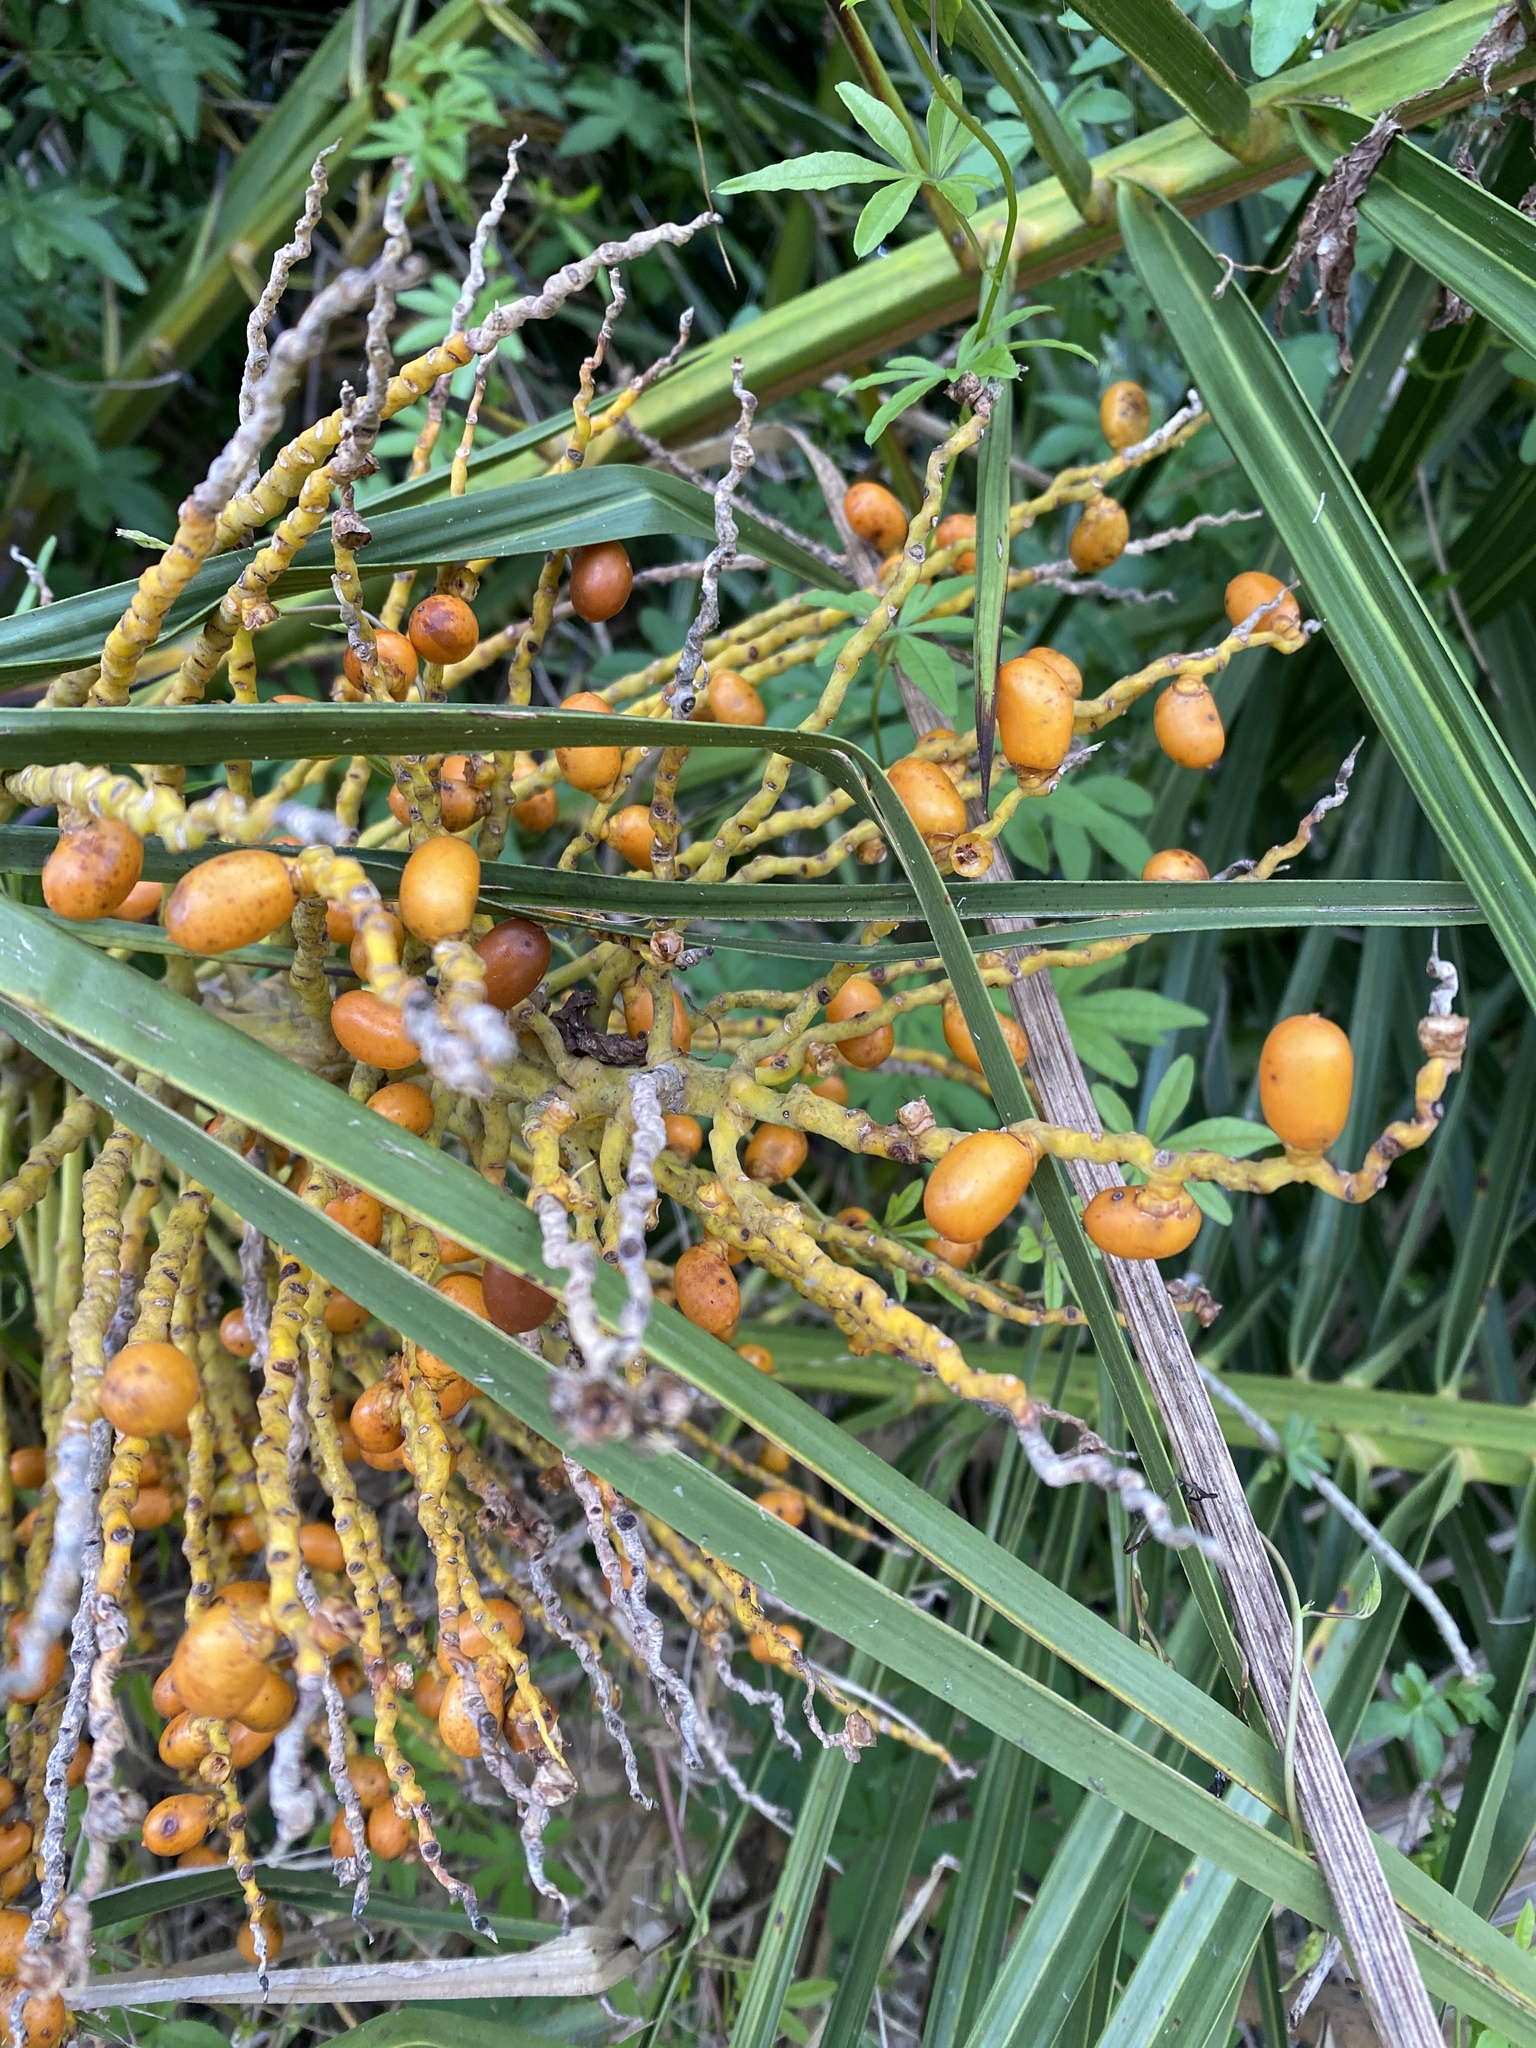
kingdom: Plantae
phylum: Tracheophyta
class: Liliopsida
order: Arecales
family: Arecaceae
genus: Phoenix
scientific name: Phoenix reclinata
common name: Senegal date palm
